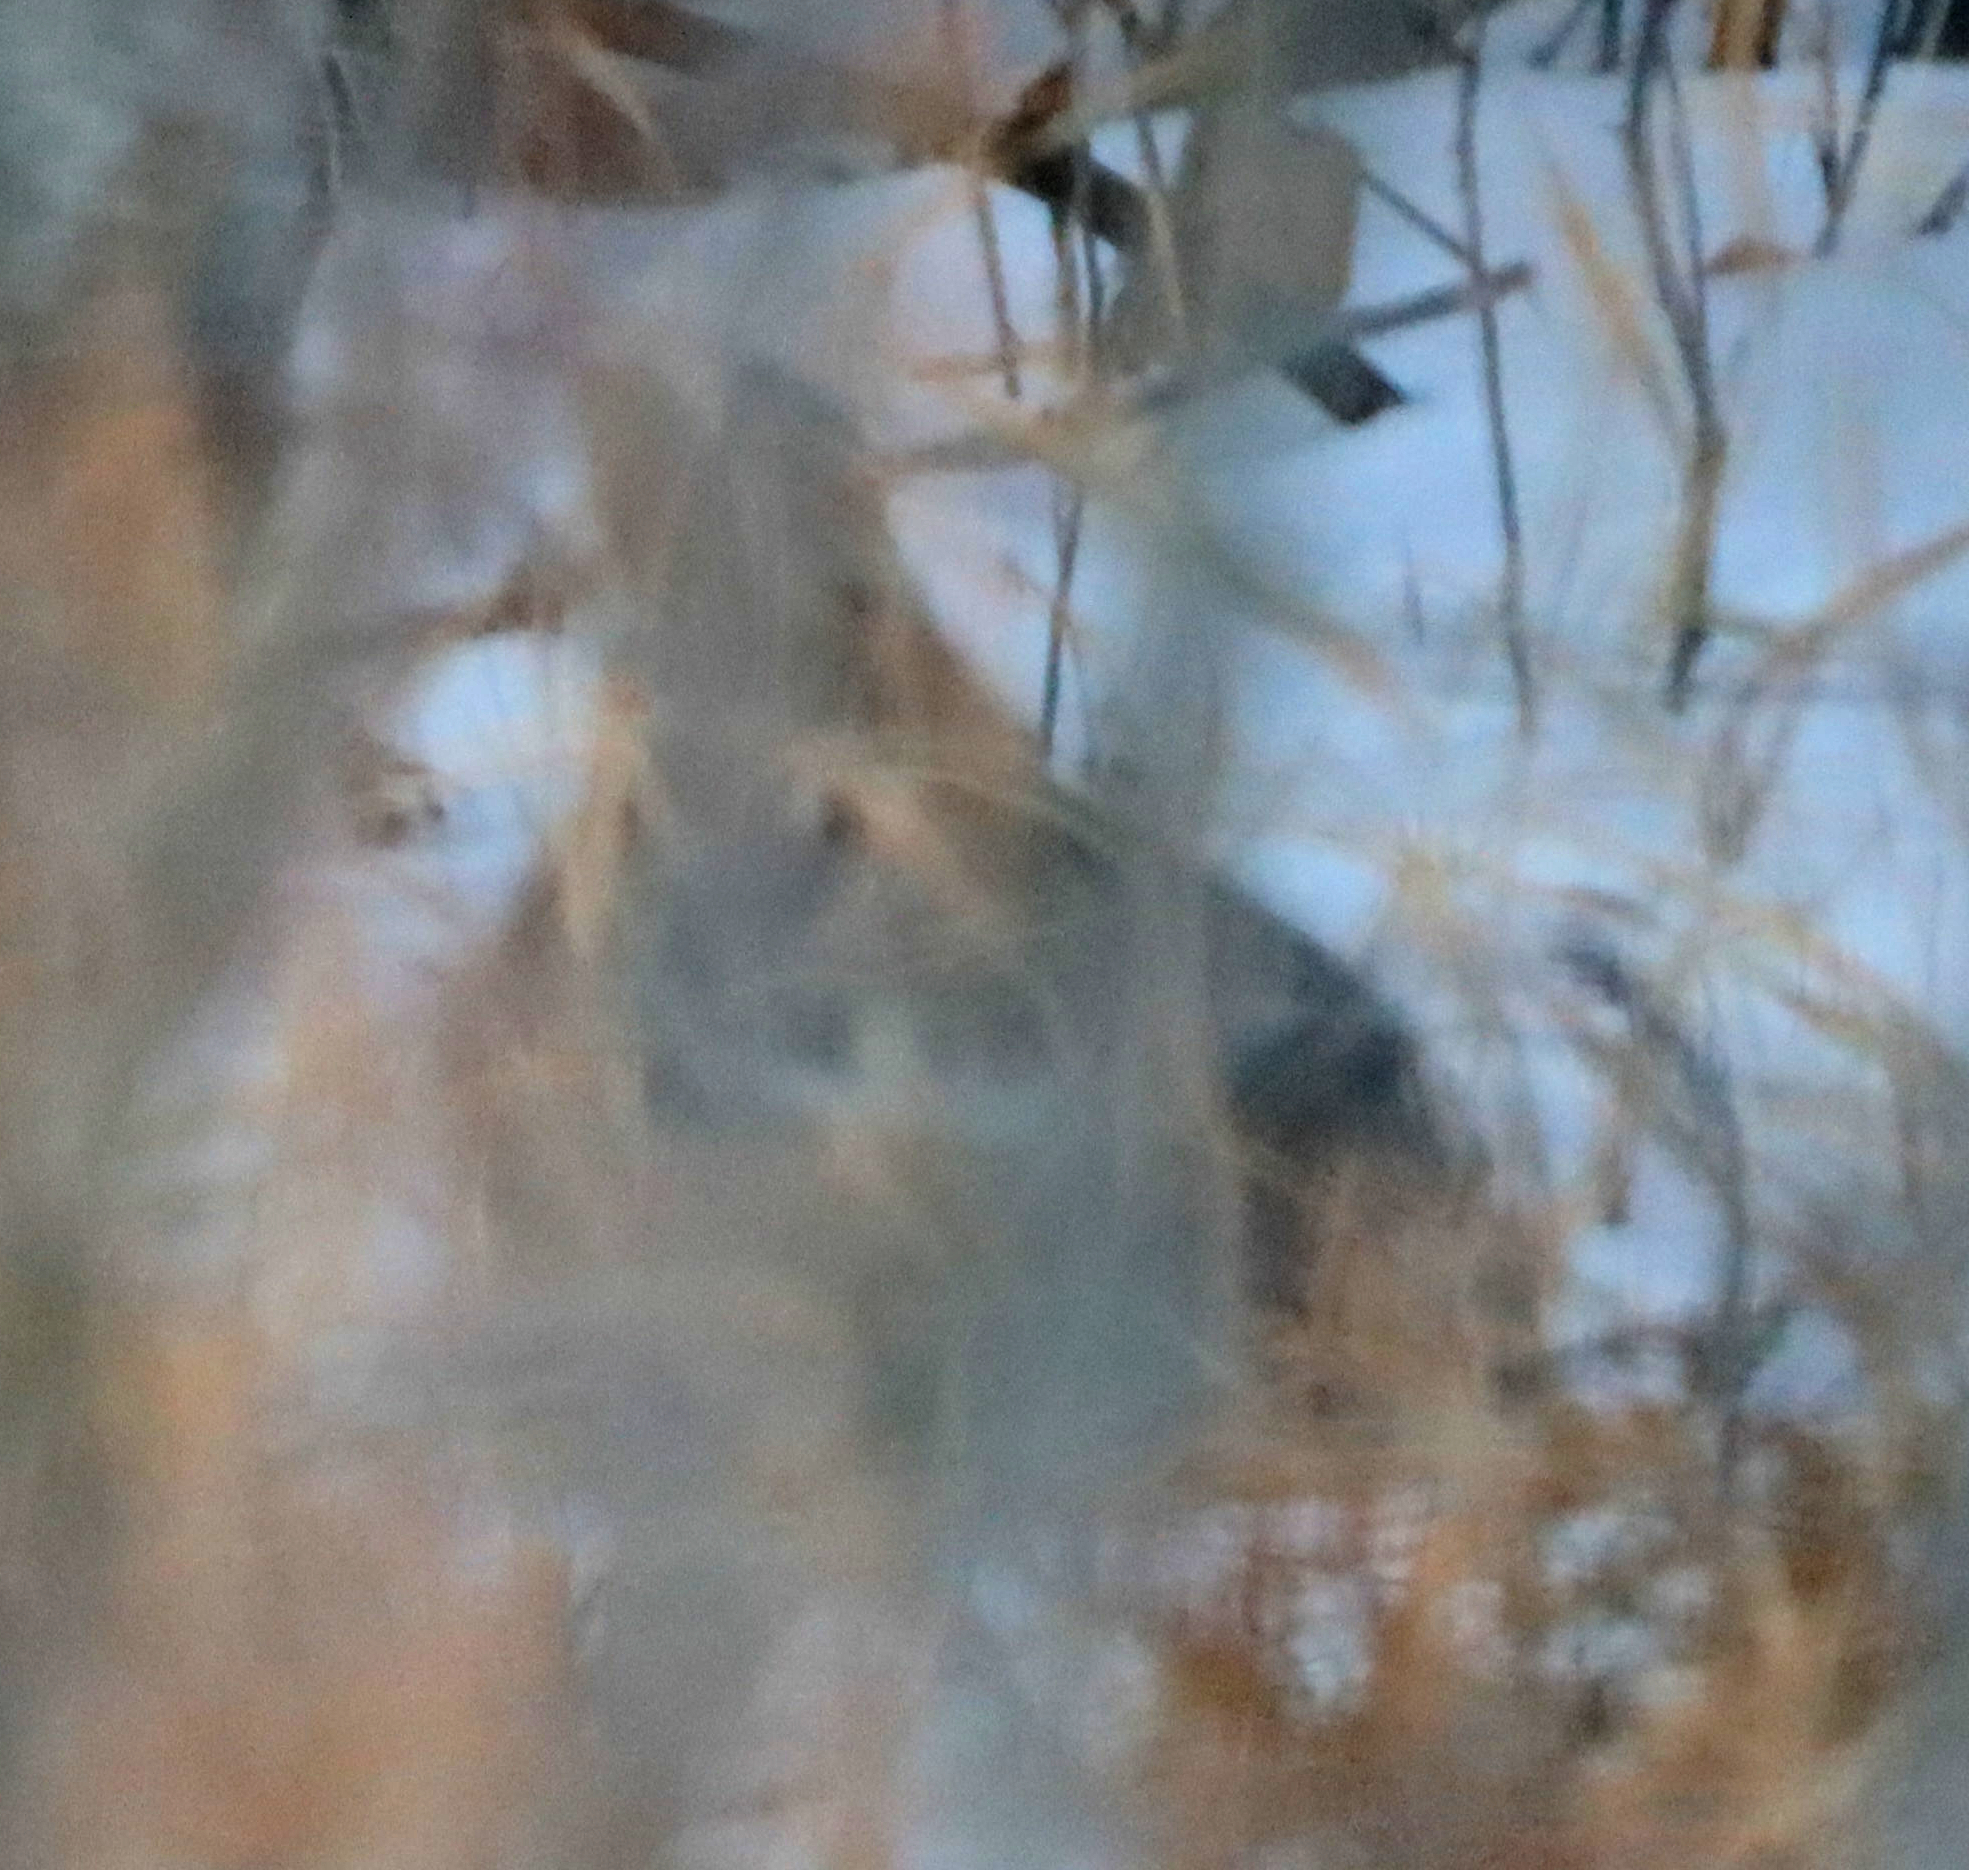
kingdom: Animalia
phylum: Chordata
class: Mammalia
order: Lagomorpha
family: Leporidae
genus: Sylvilagus
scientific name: Sylvilagus floridanus
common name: Eastern cottontail
